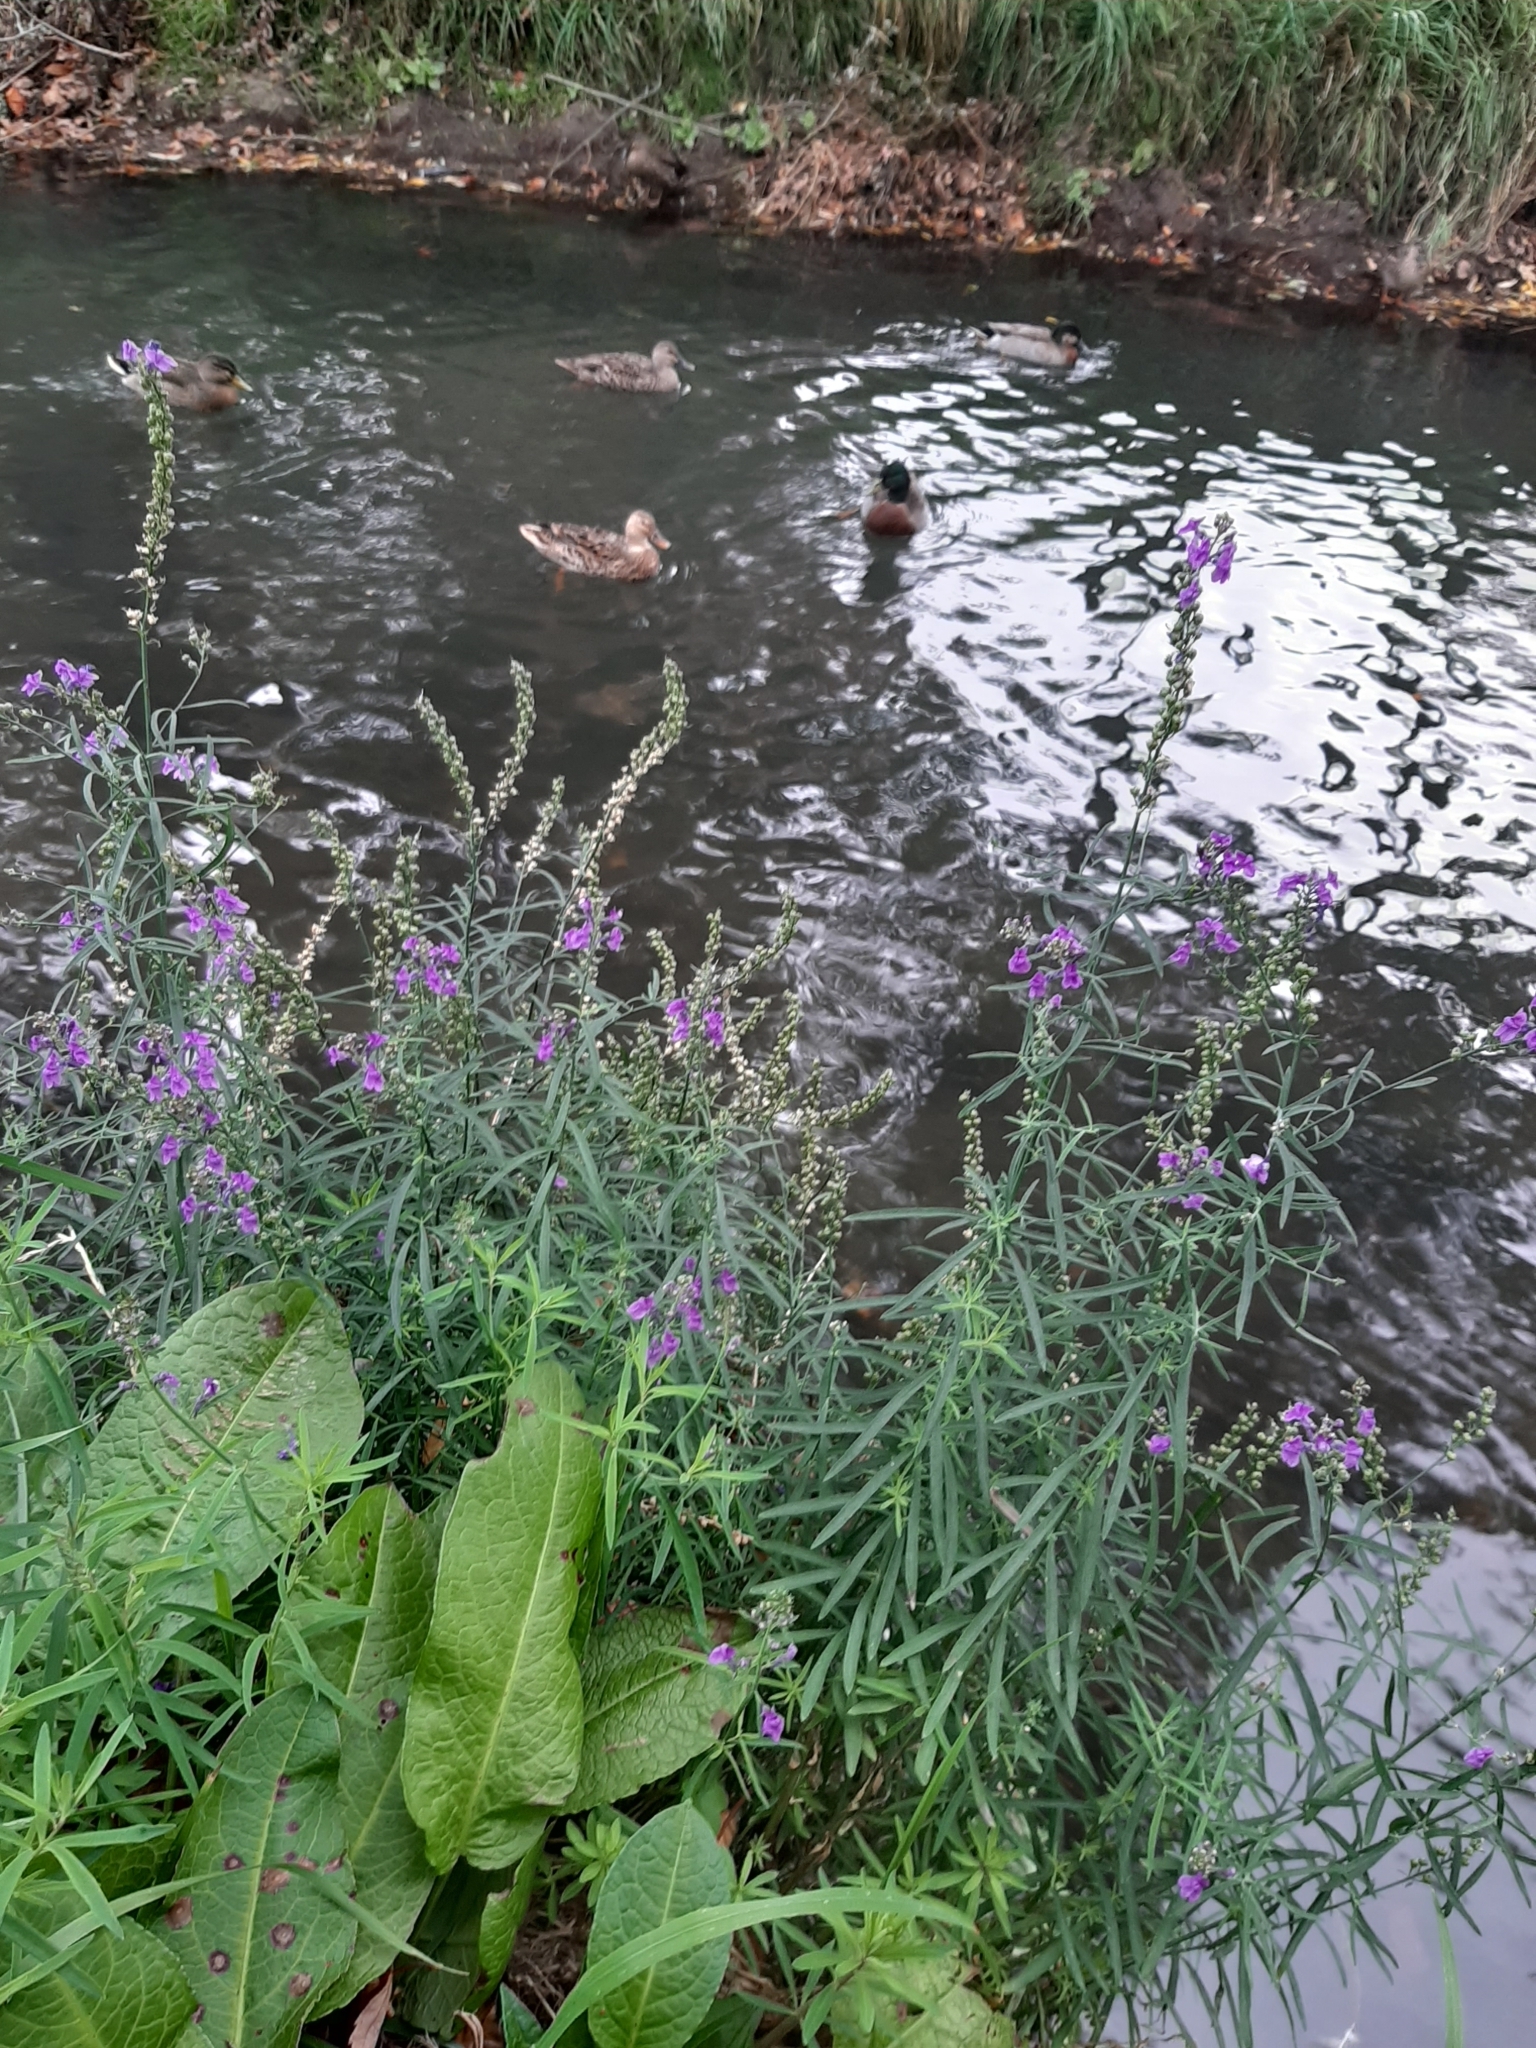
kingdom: Plantae
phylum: Tracheophyta
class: Magnoliopsida
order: Lamiales
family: Plantaginaceae
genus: Linaria
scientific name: Linaria purpurea
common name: Purple toadflax
